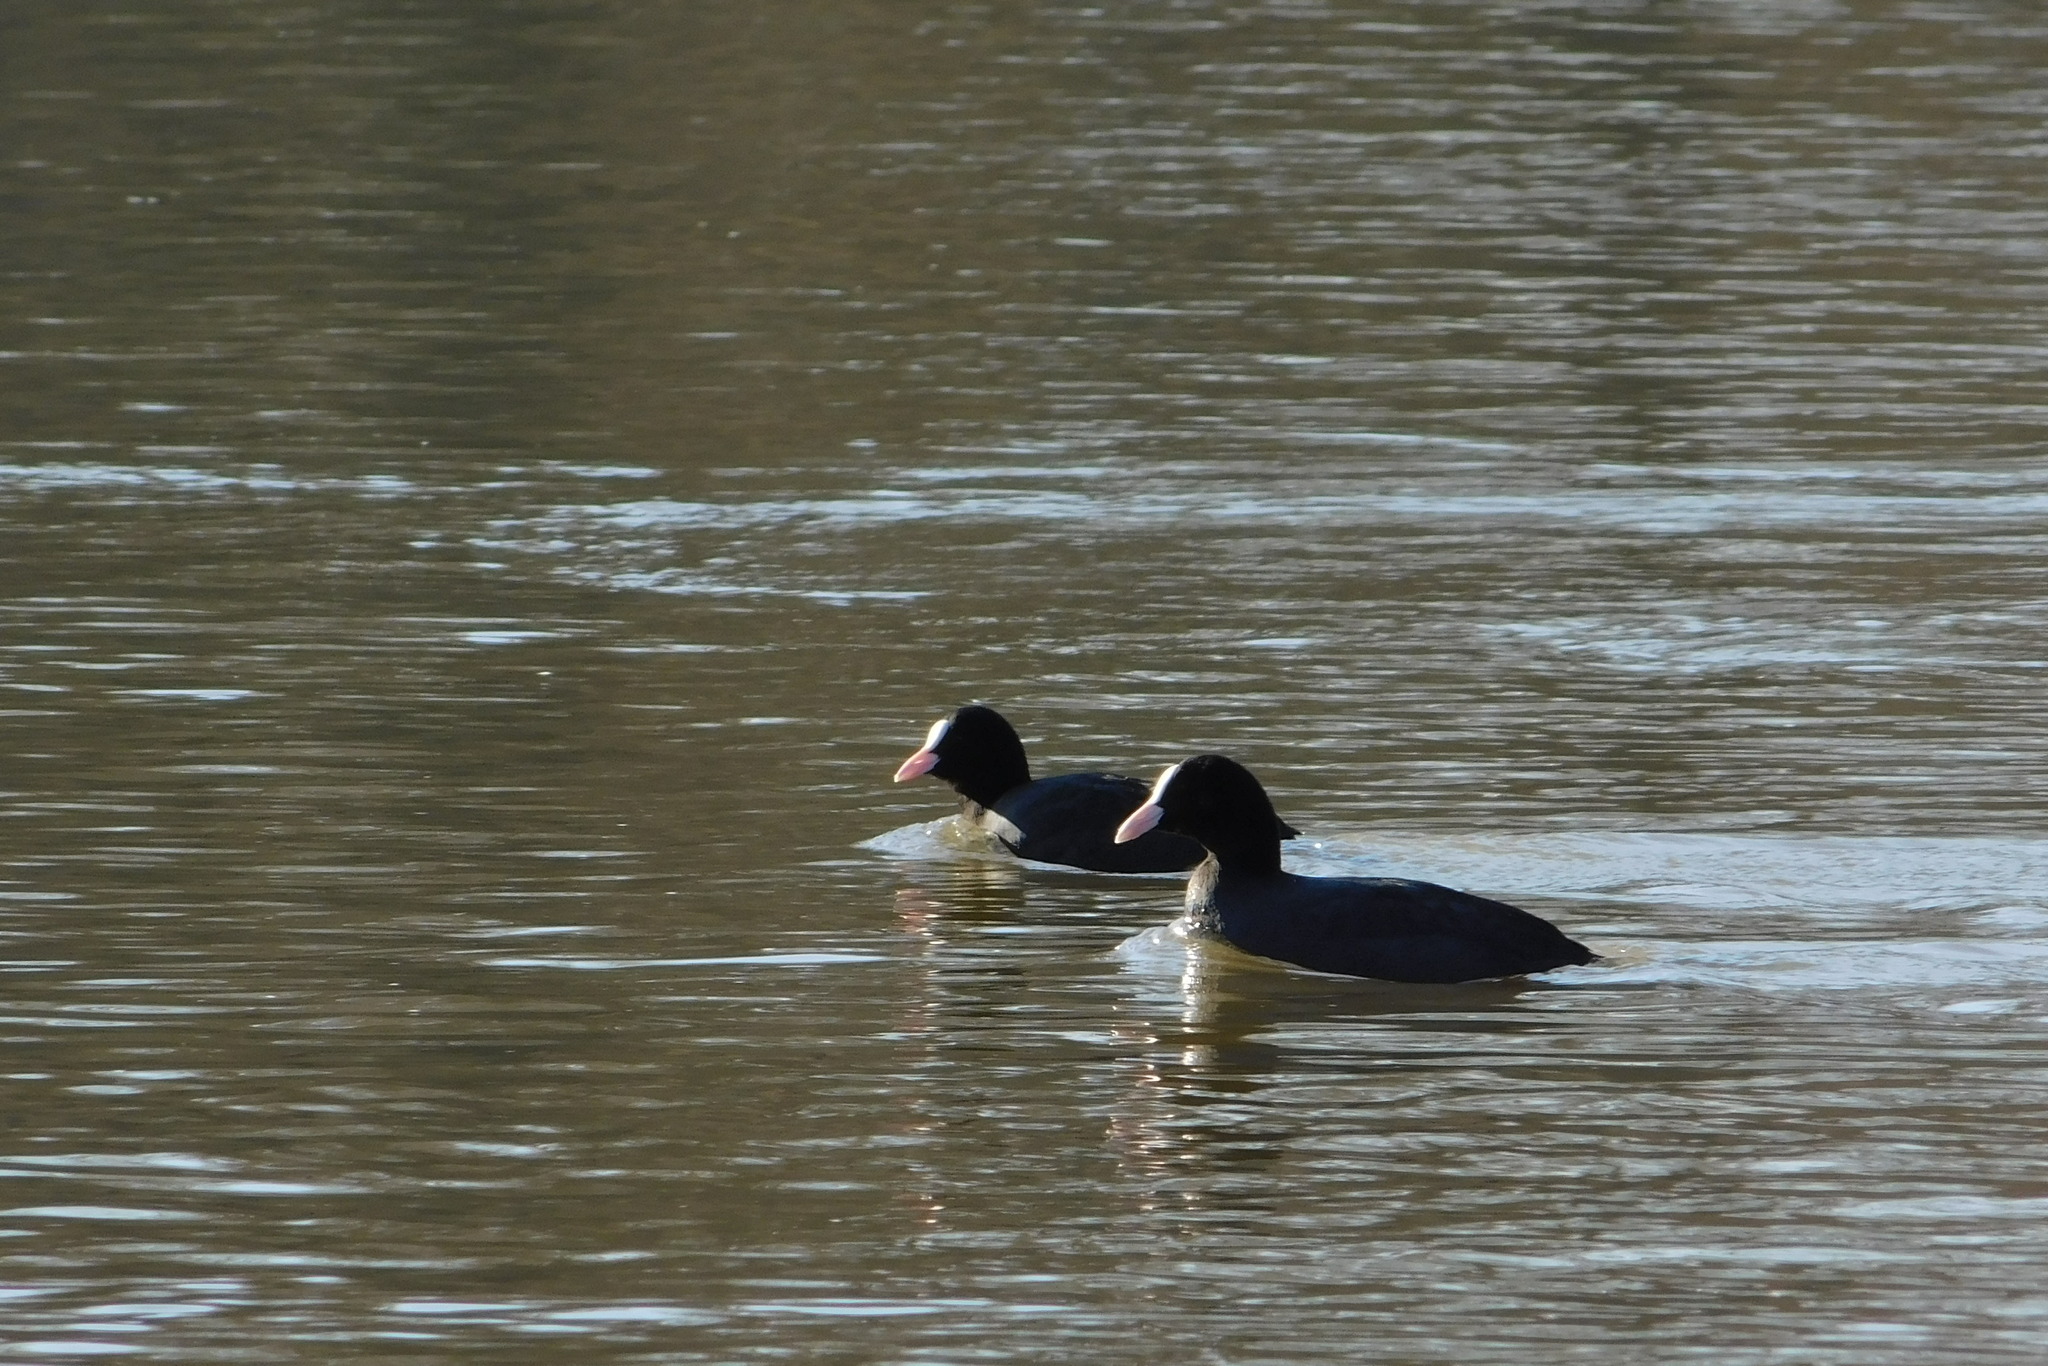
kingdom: Animalia
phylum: Chordata
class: Aves
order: Gruiformes
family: Rallidae
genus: Fulica
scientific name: Fulica atra
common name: Eurasian coot
